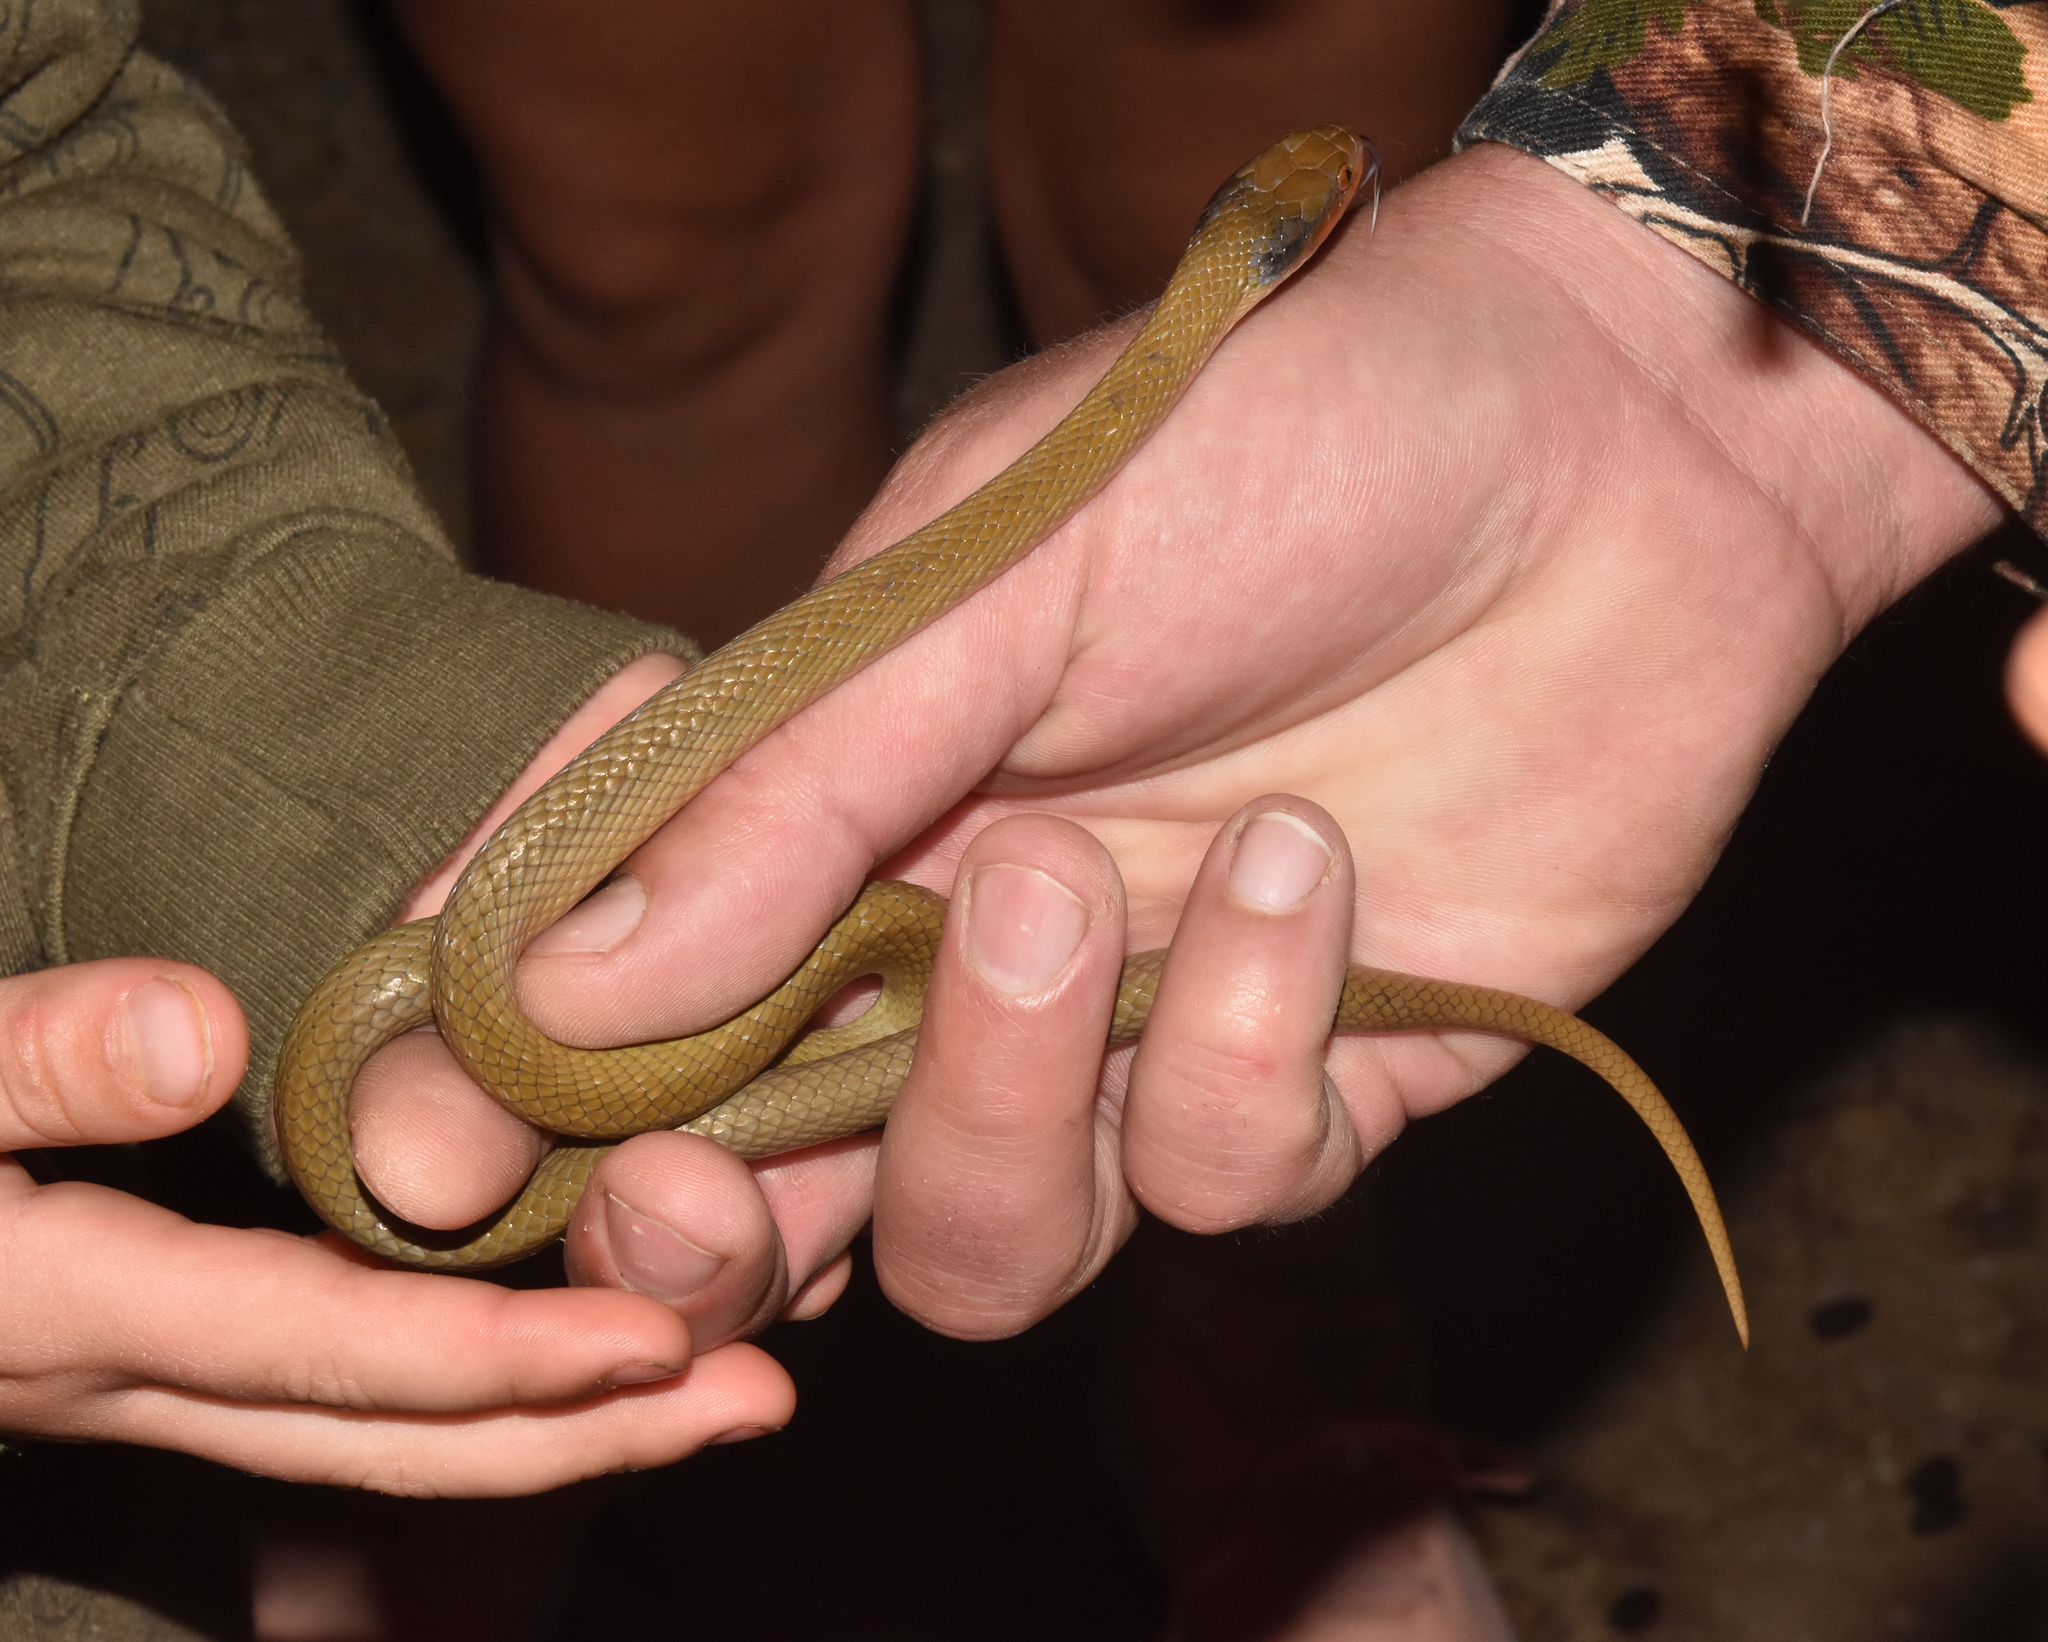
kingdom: Animalia
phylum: Chordata
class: Squamata
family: Colubridae
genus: Crotaphopeltis
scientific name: Crotaphopeltis hotamboeia
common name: Red-lipped snake
